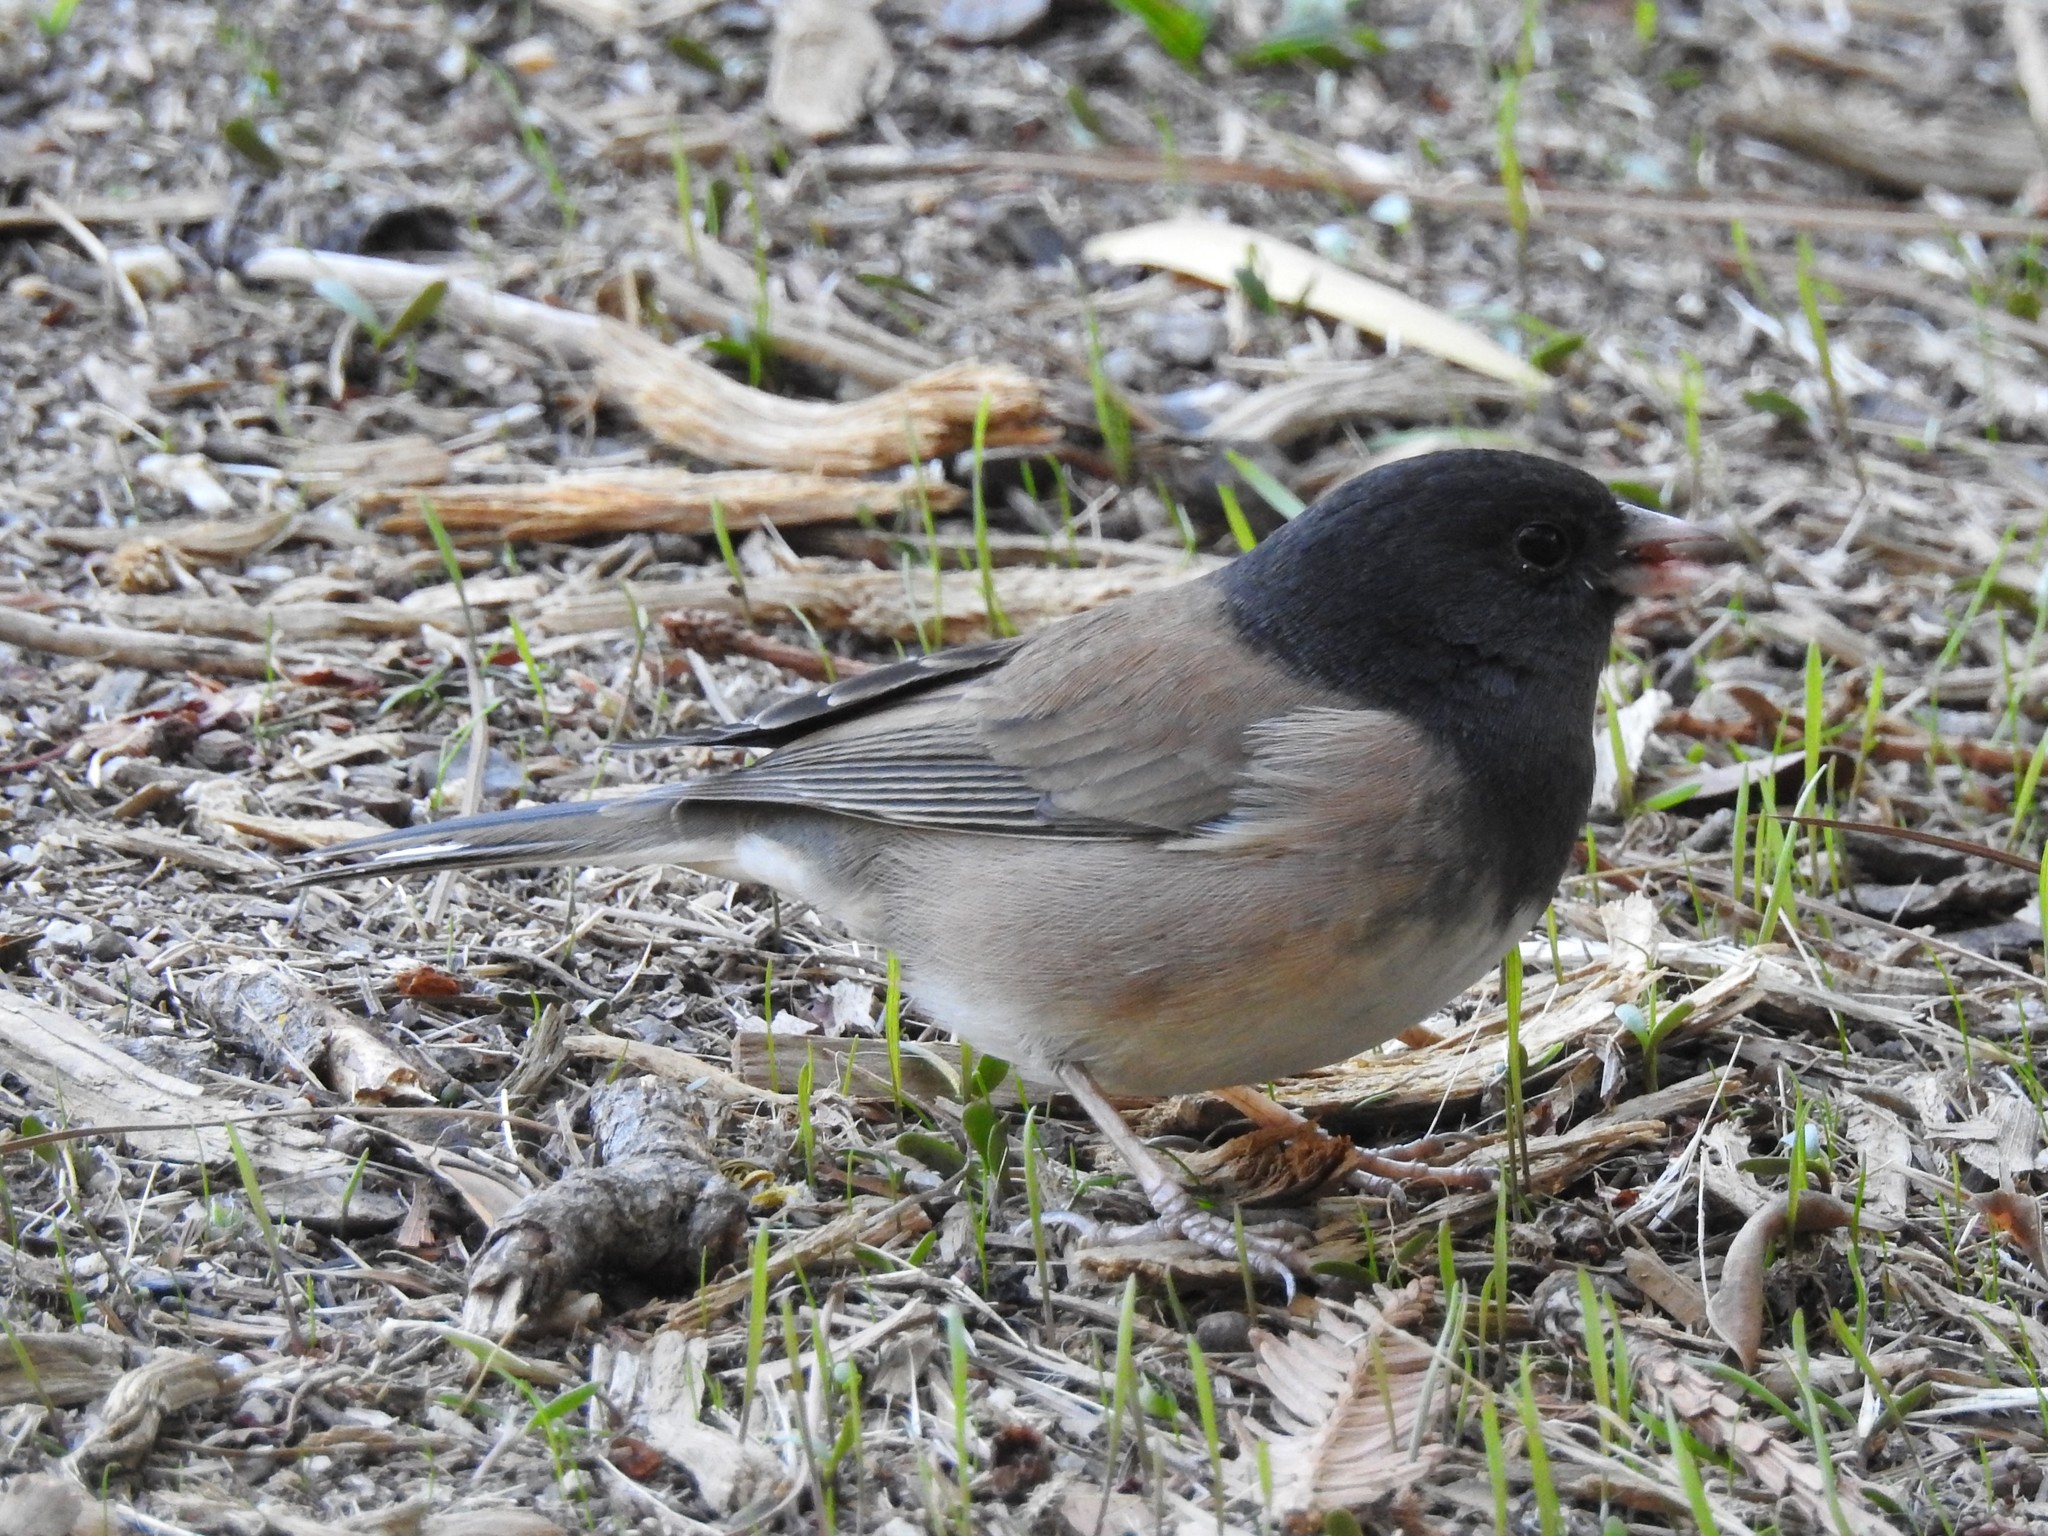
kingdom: Animalia
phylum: Chordata
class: Aves
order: Passeriformes
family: Passerellidae
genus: Junco
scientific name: Junco hyemalis
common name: Dark-eyed junco
